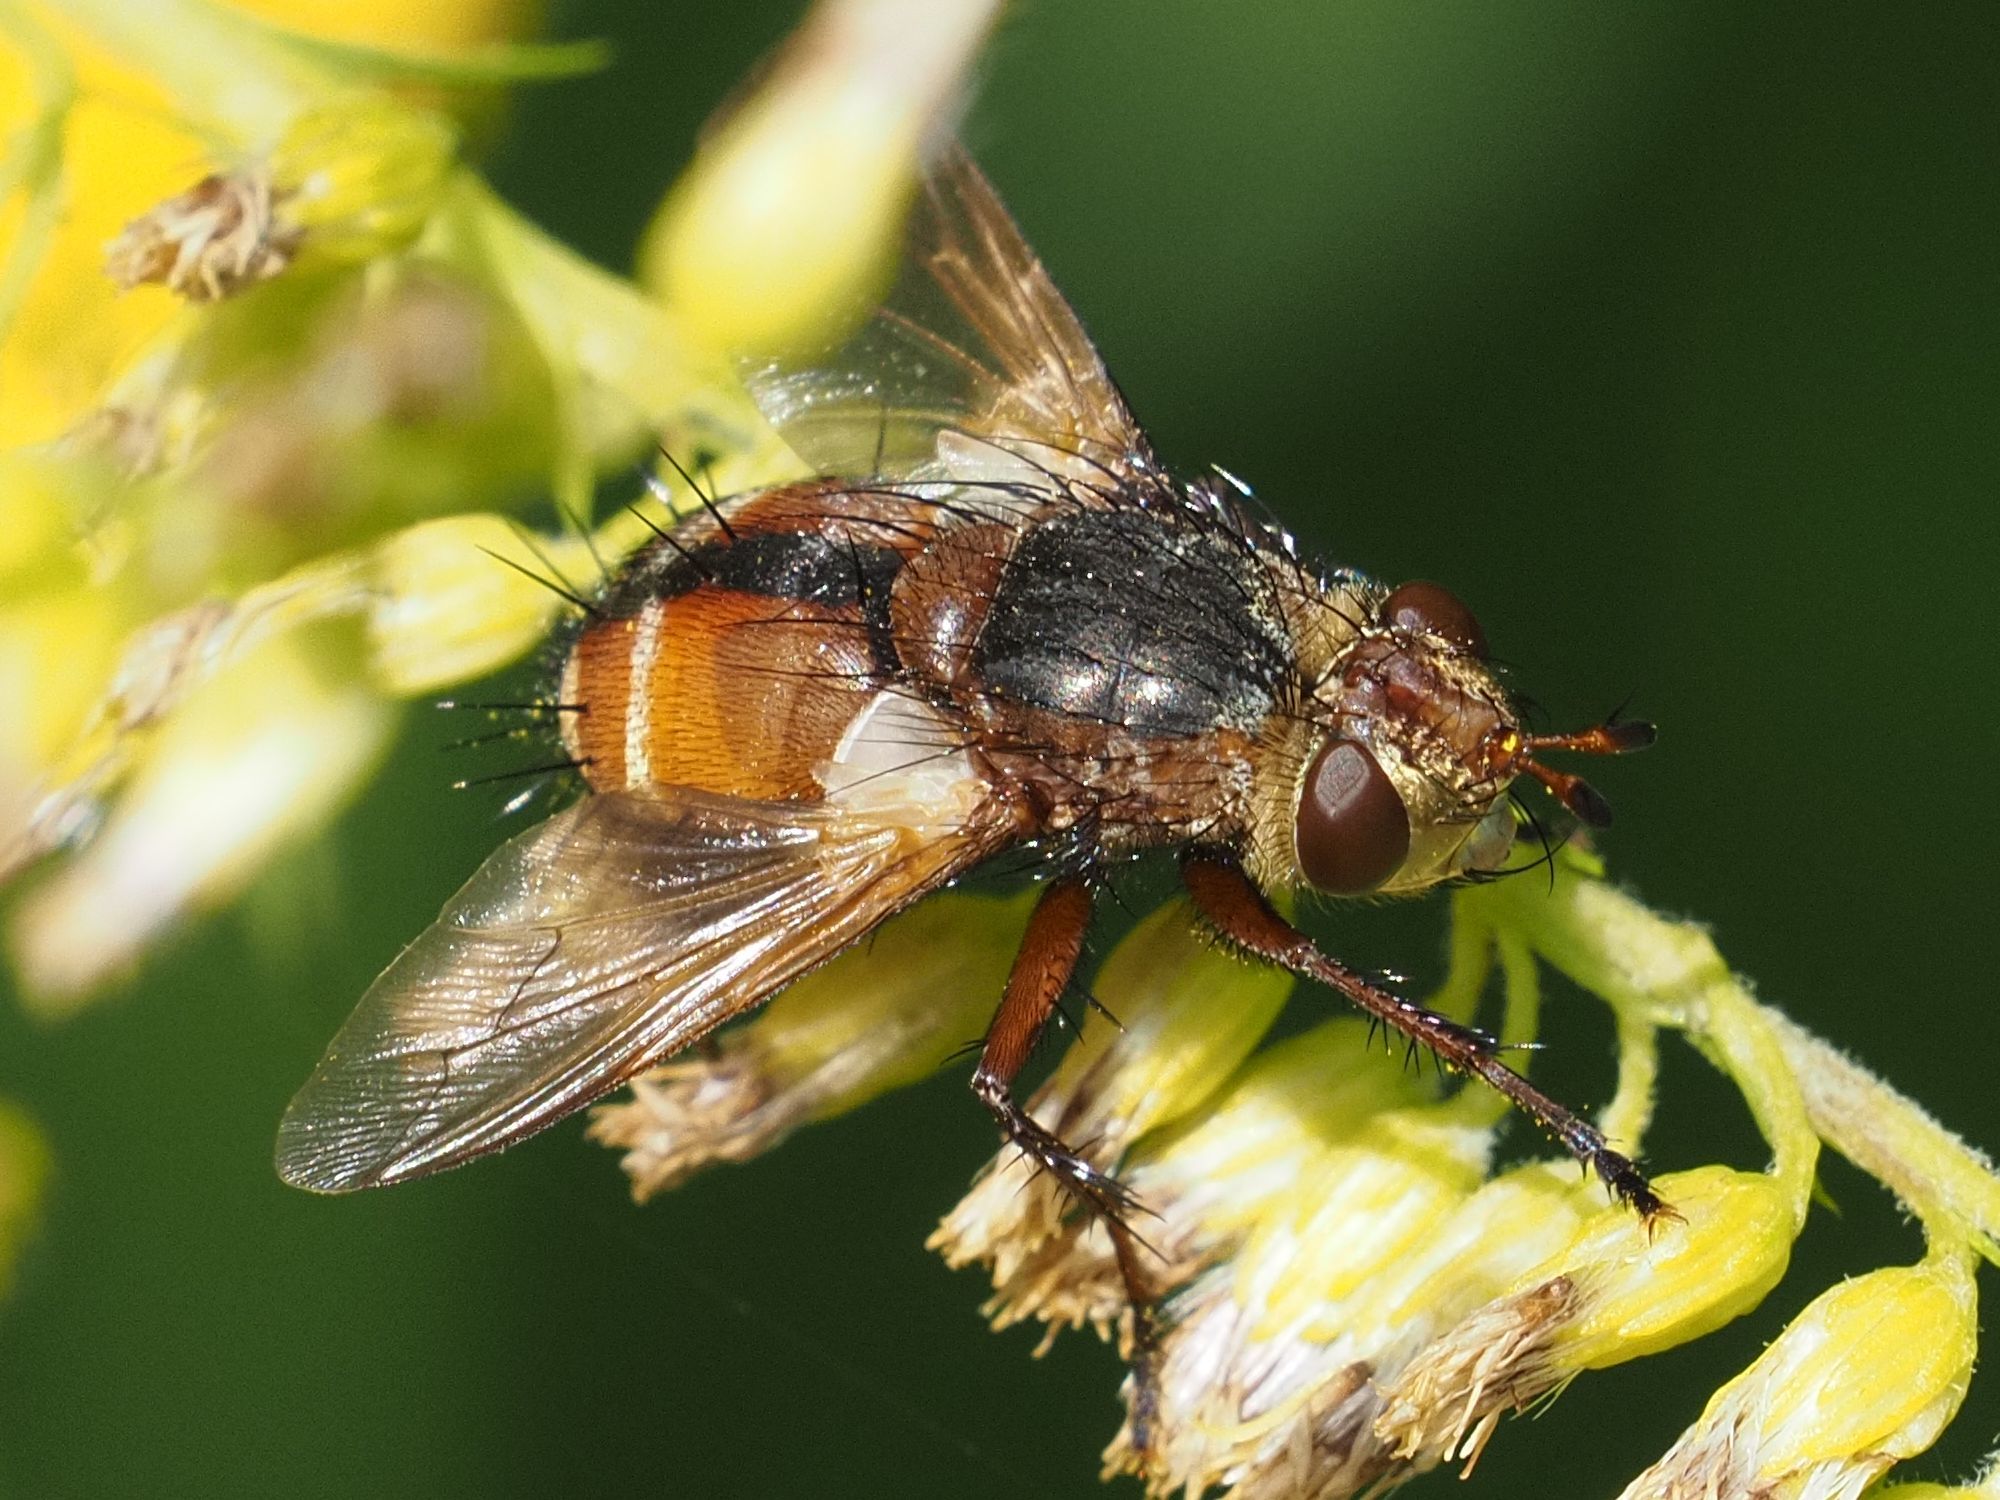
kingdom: Animalia
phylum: Arthropoda
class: Insecta
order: Diptera
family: Tachinidae
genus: Tachina
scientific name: Tachina fera
